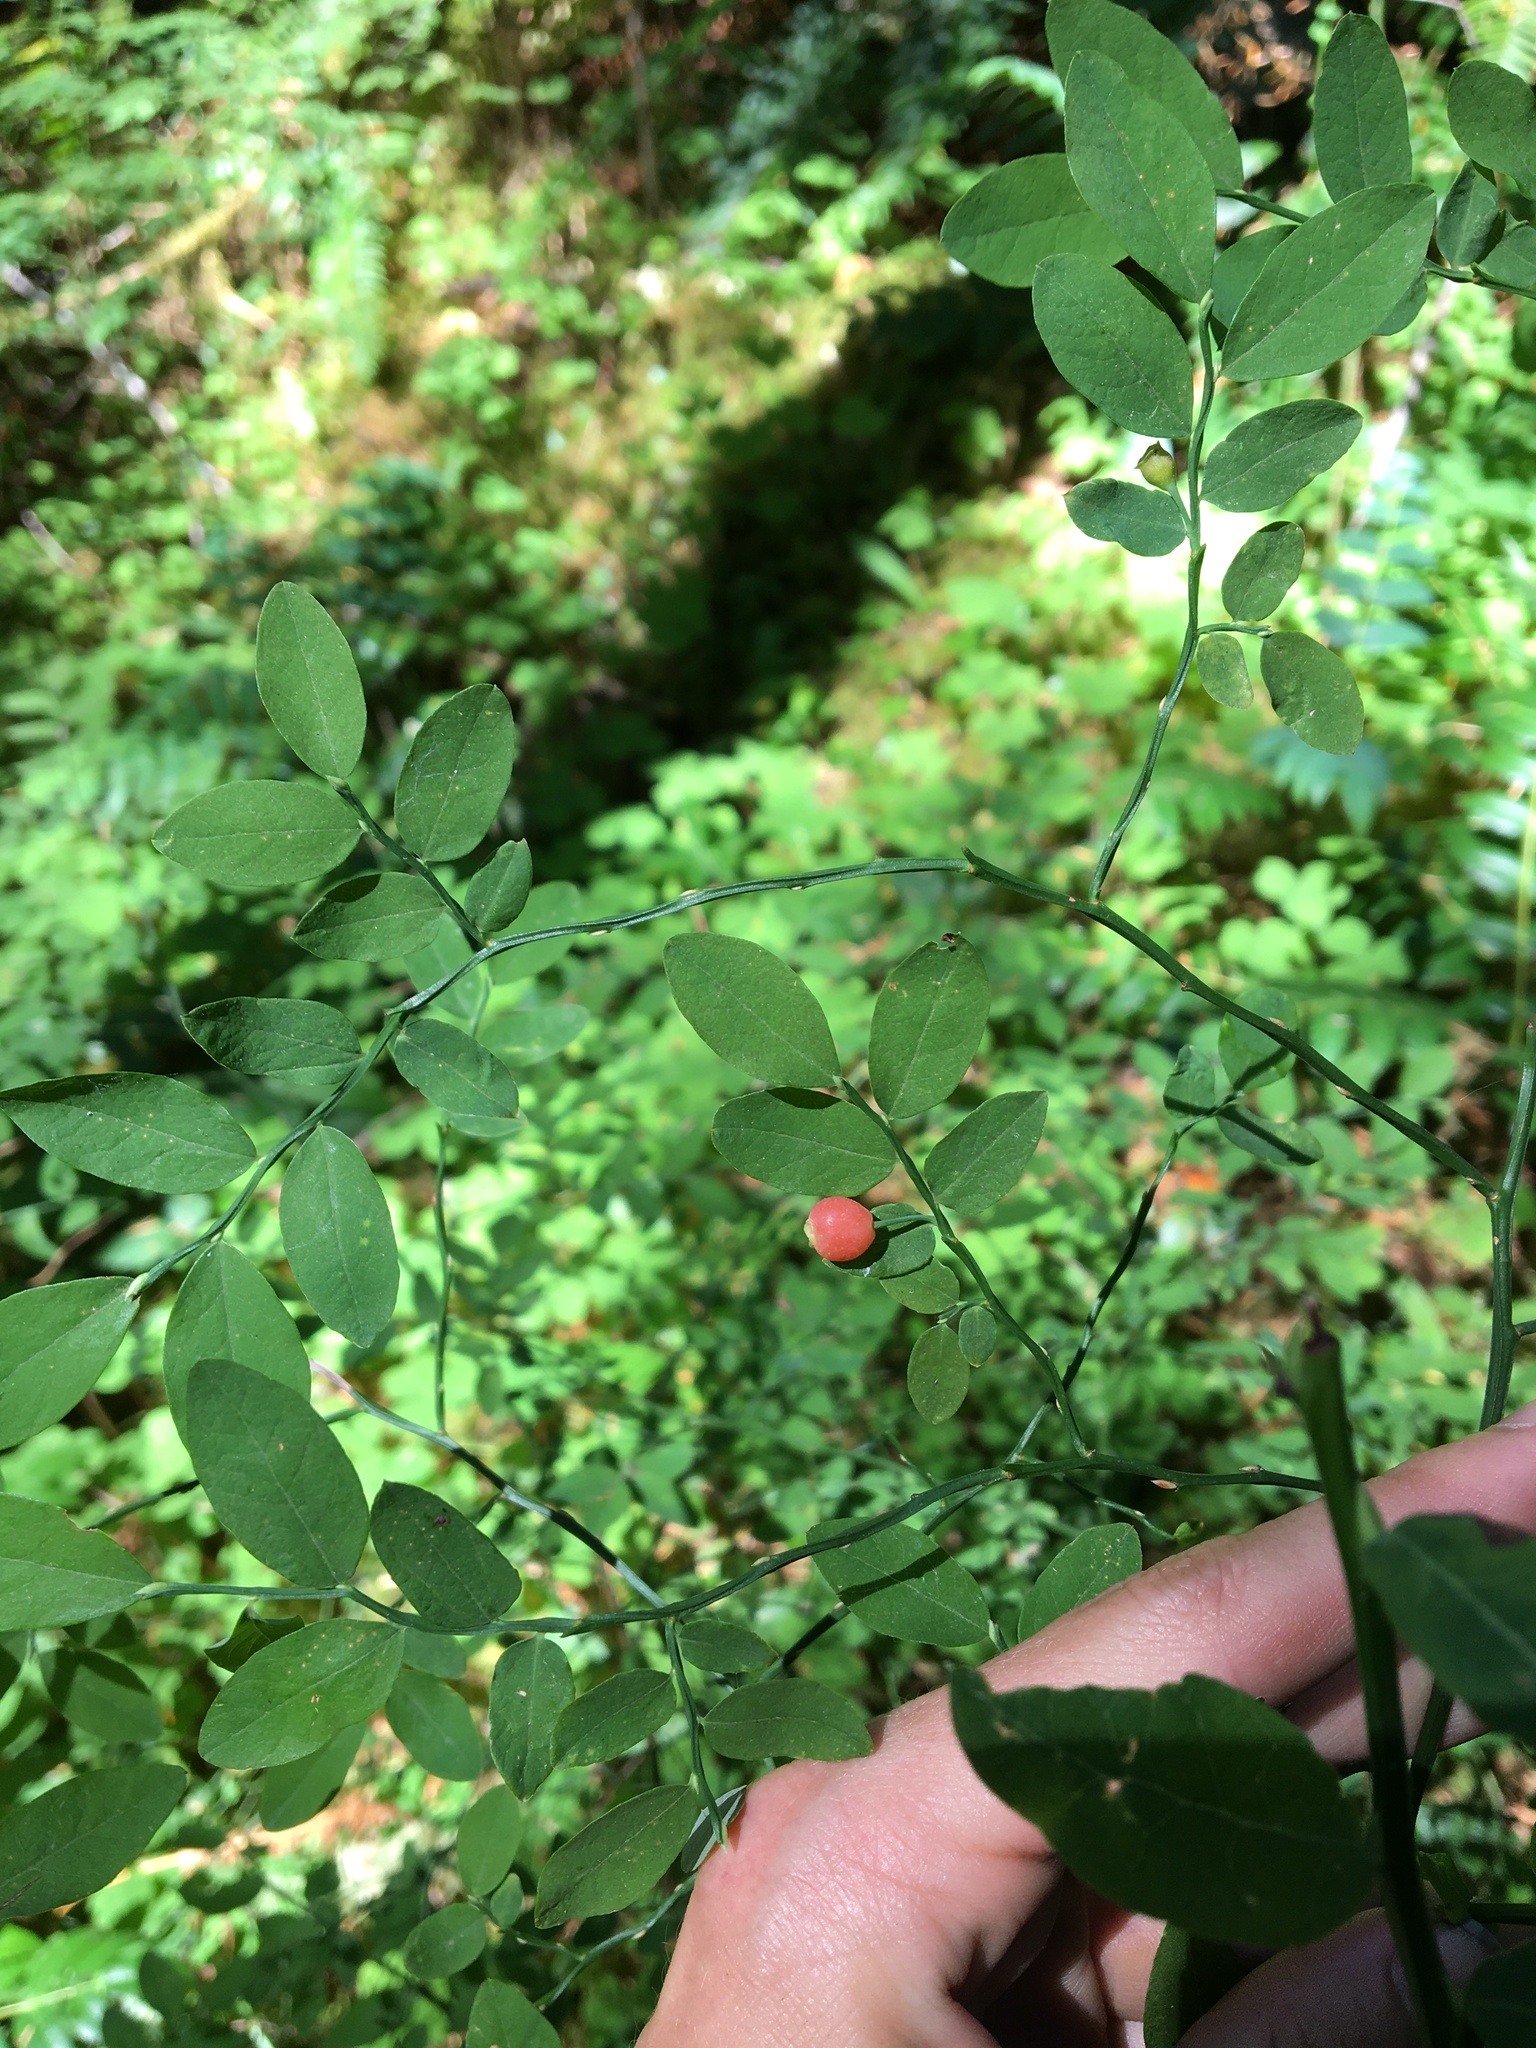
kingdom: Plantae
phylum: Tracheophyta
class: Magnoliopsida
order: Ericales
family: Ericaceae
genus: Vaccinium
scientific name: Vaccinium parvifolium
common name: Red-huckleberry
